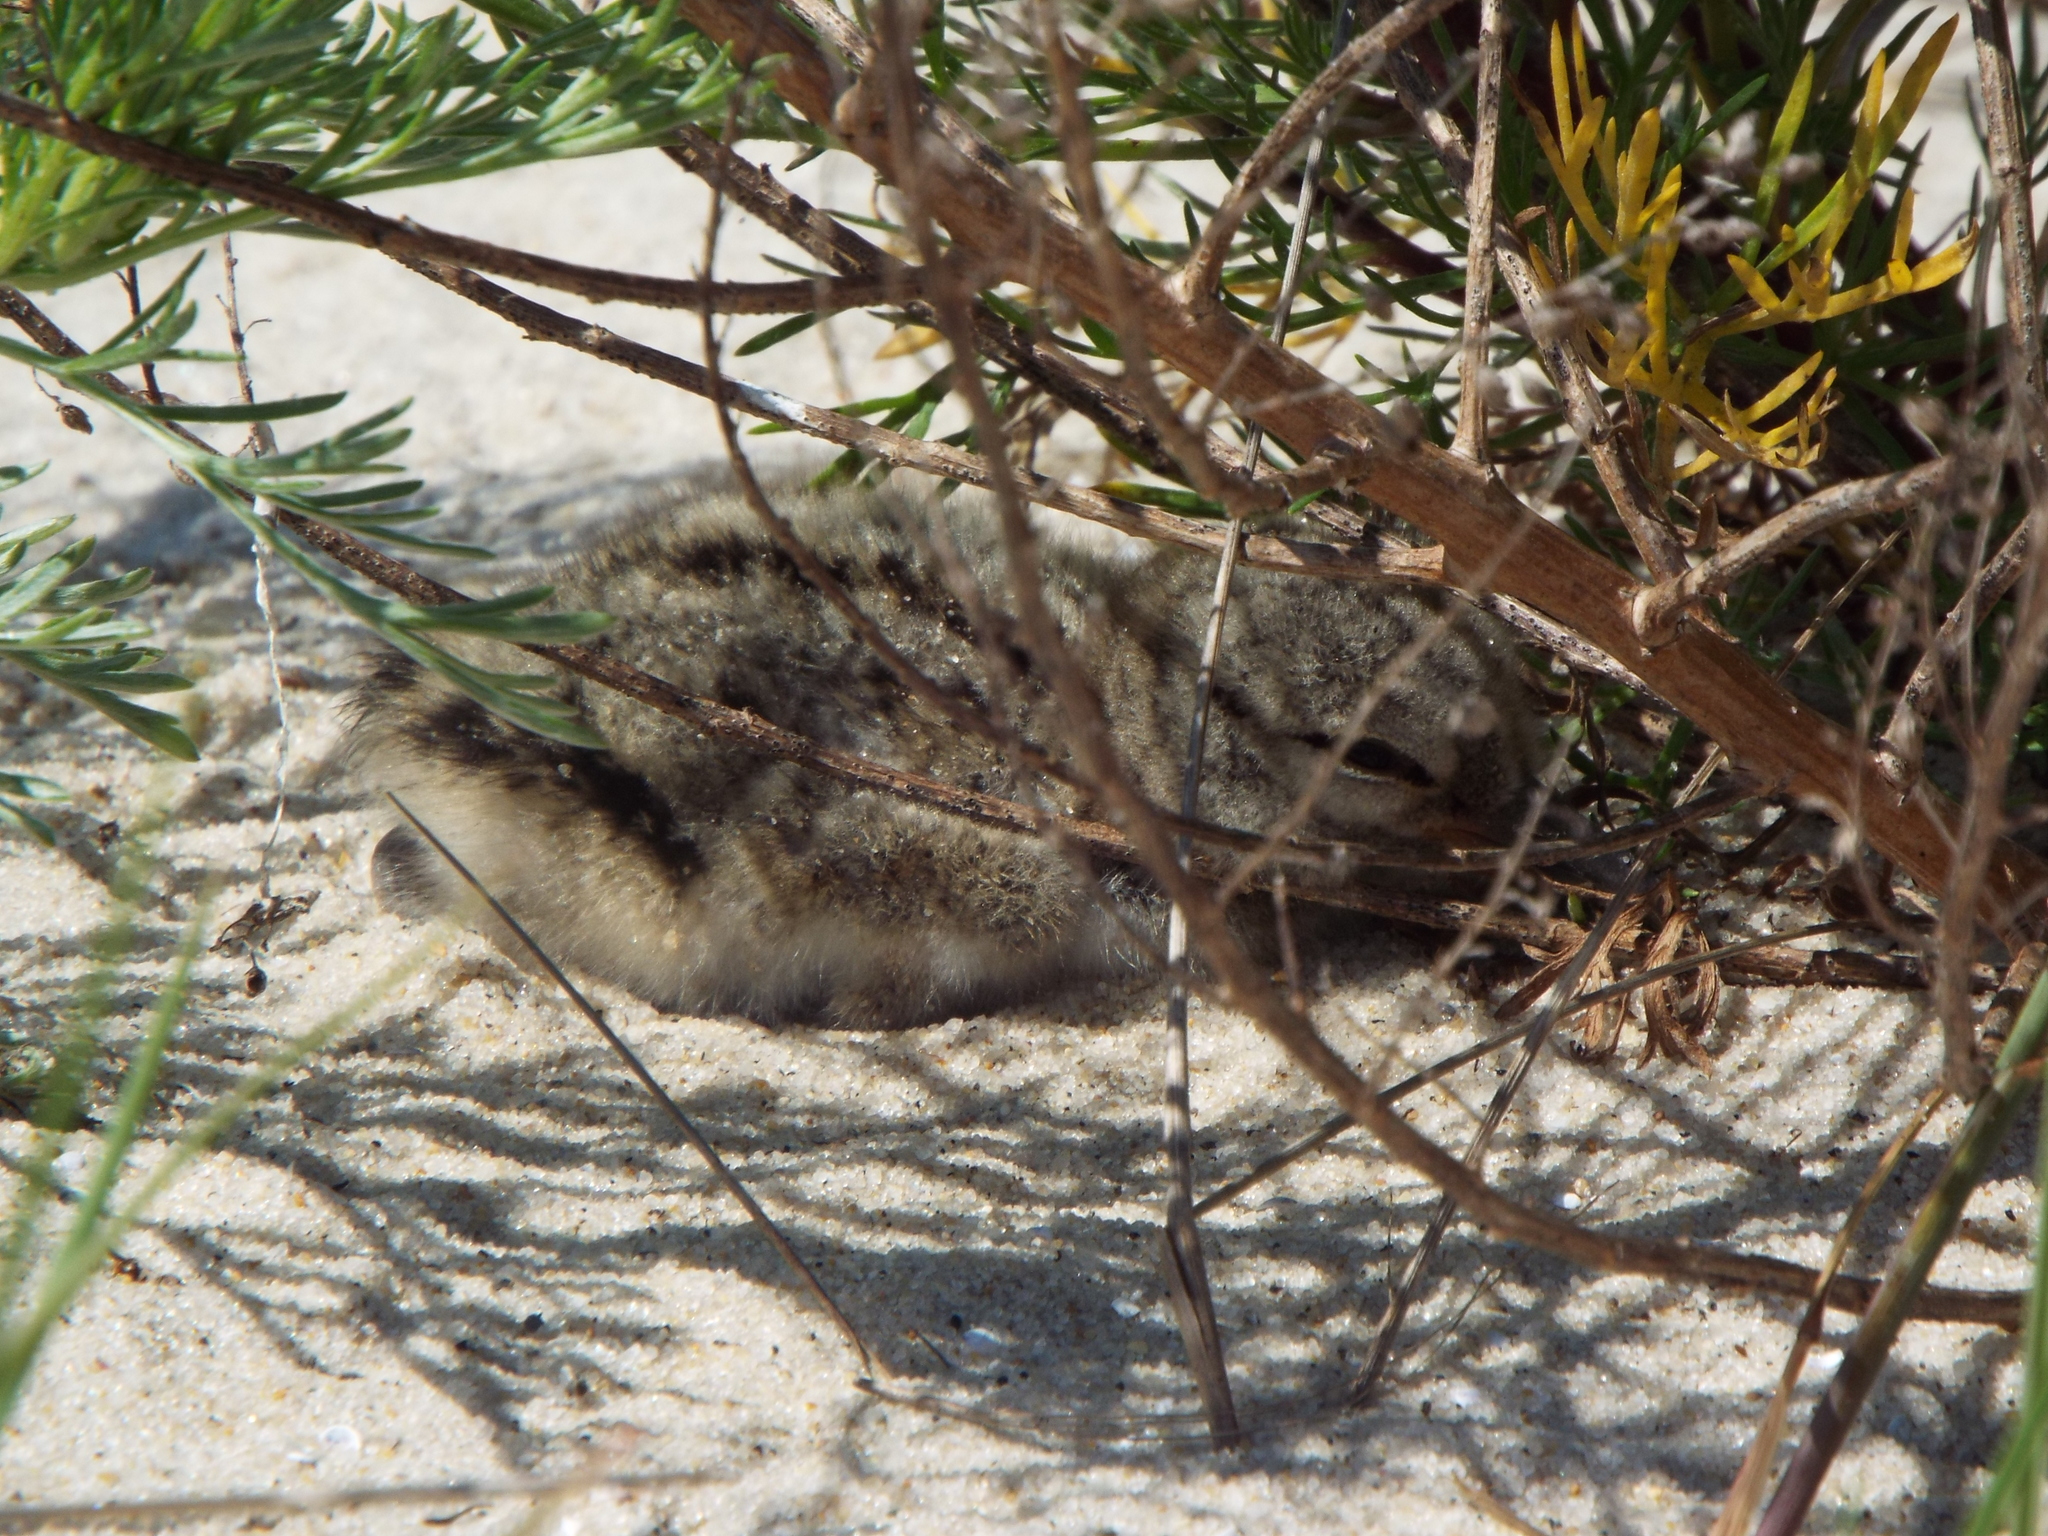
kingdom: Animalia
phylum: Chordata
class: Aves
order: Charadriiformes
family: Haematopodidae
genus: Haematopus
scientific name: Haematopus palliatus
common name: American oystercatcher
